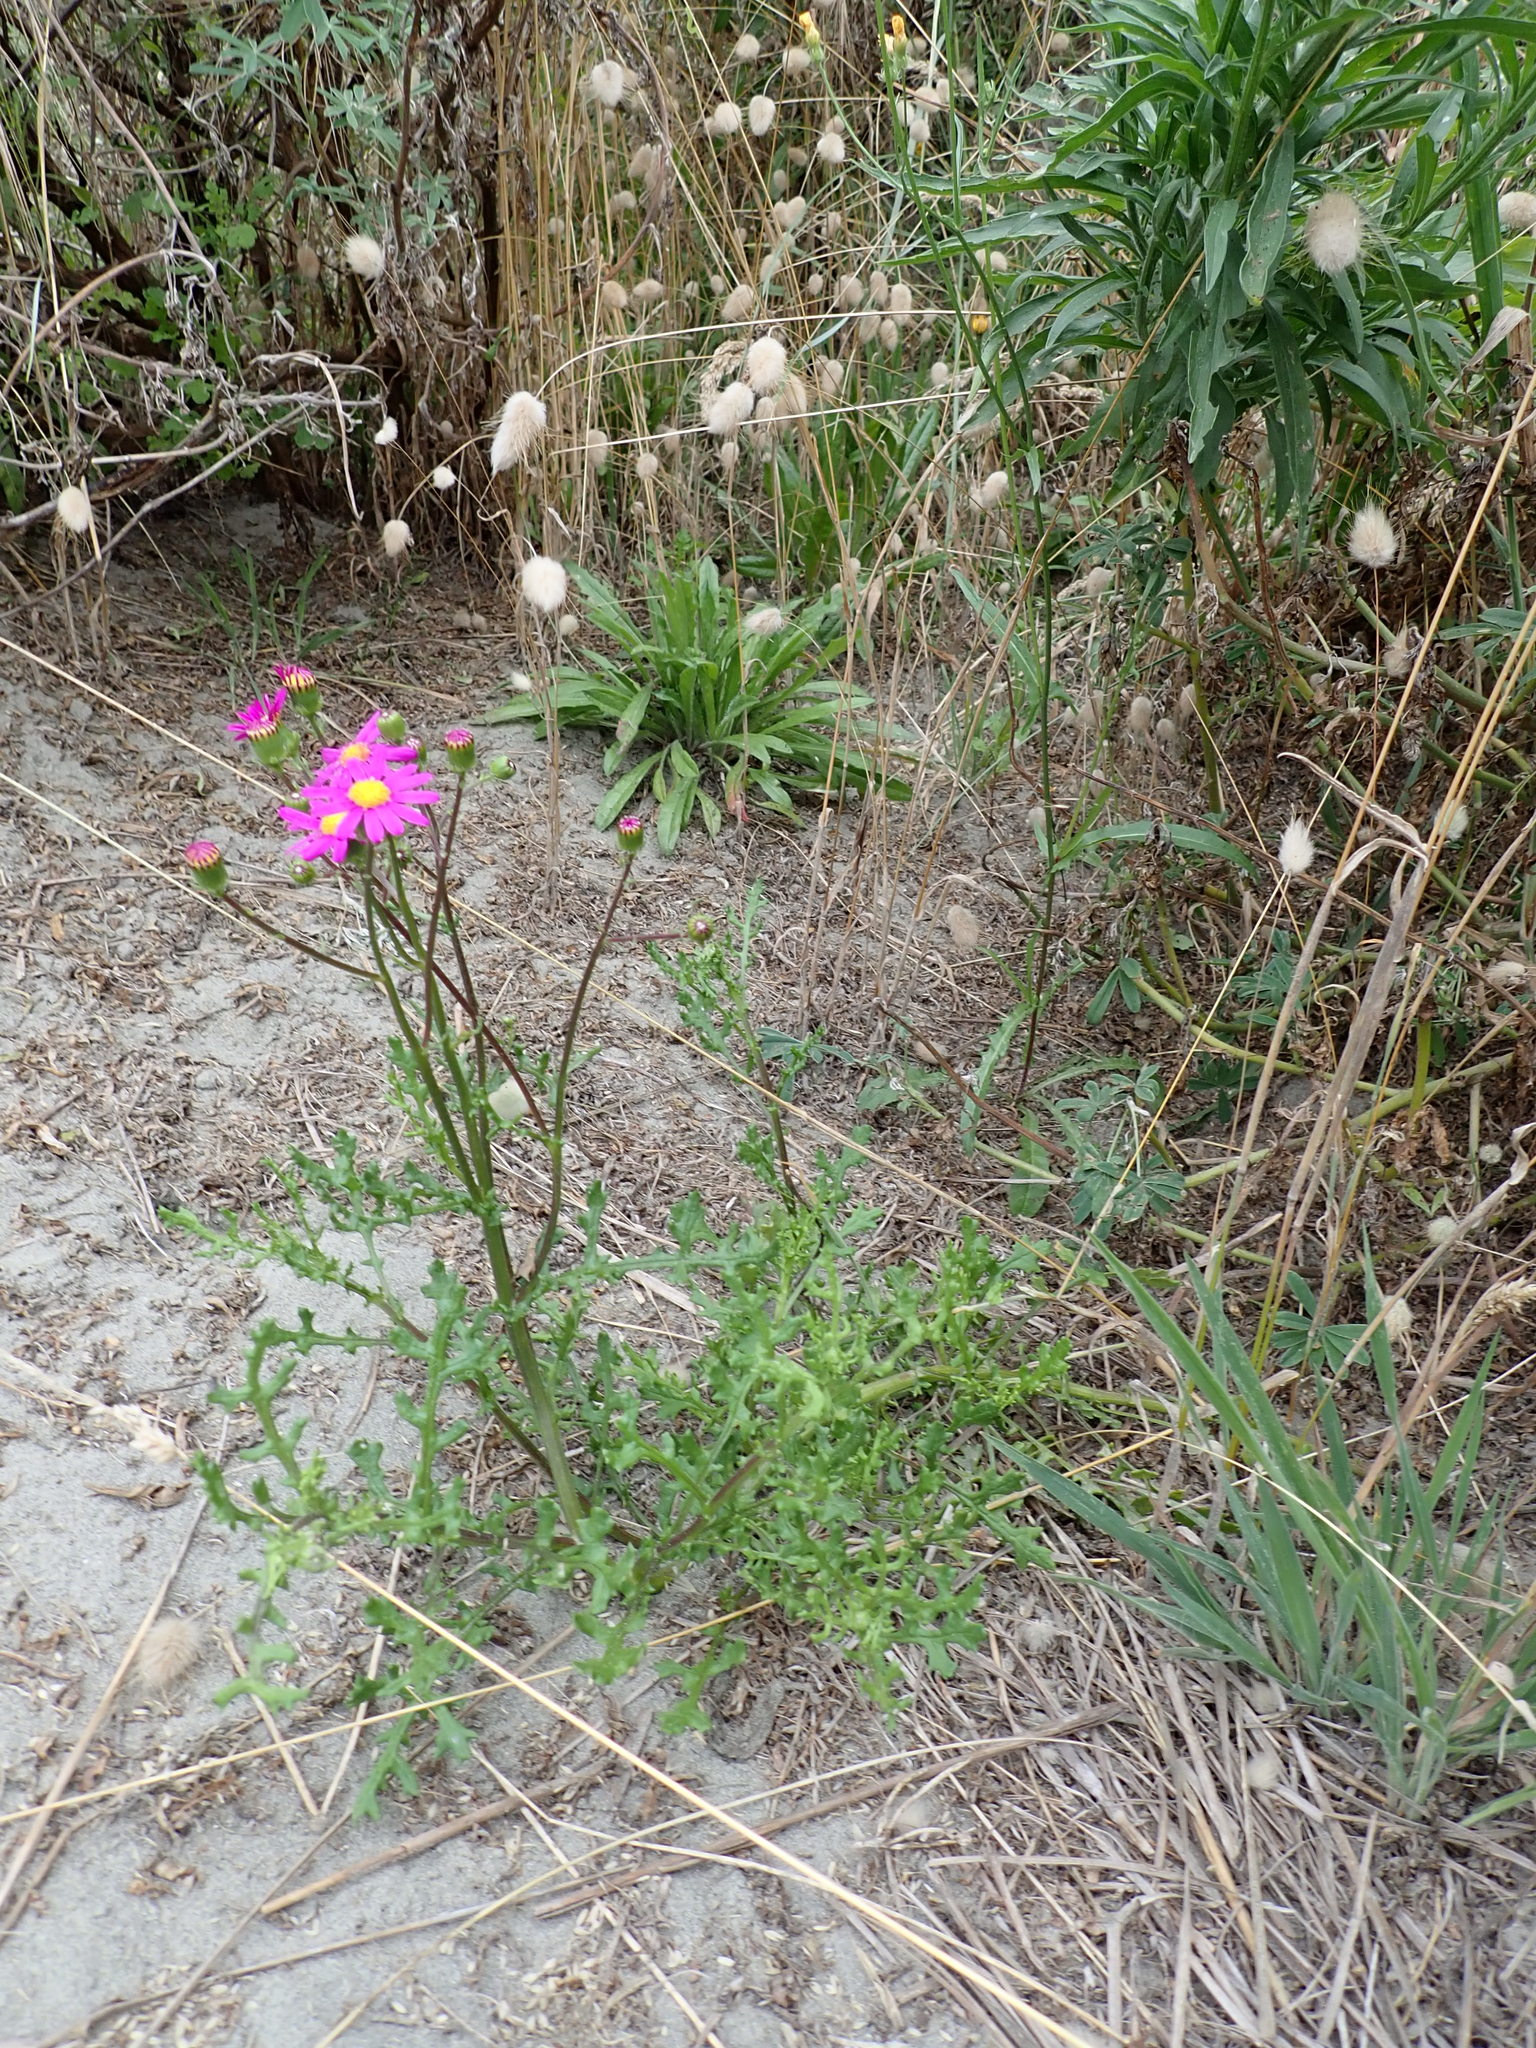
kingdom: Plantae
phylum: Tracheophyta
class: Magnoliopsida
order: Asterales
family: Asteraceae
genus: Senecio
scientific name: Senecio elegans
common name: Purple groundsel
